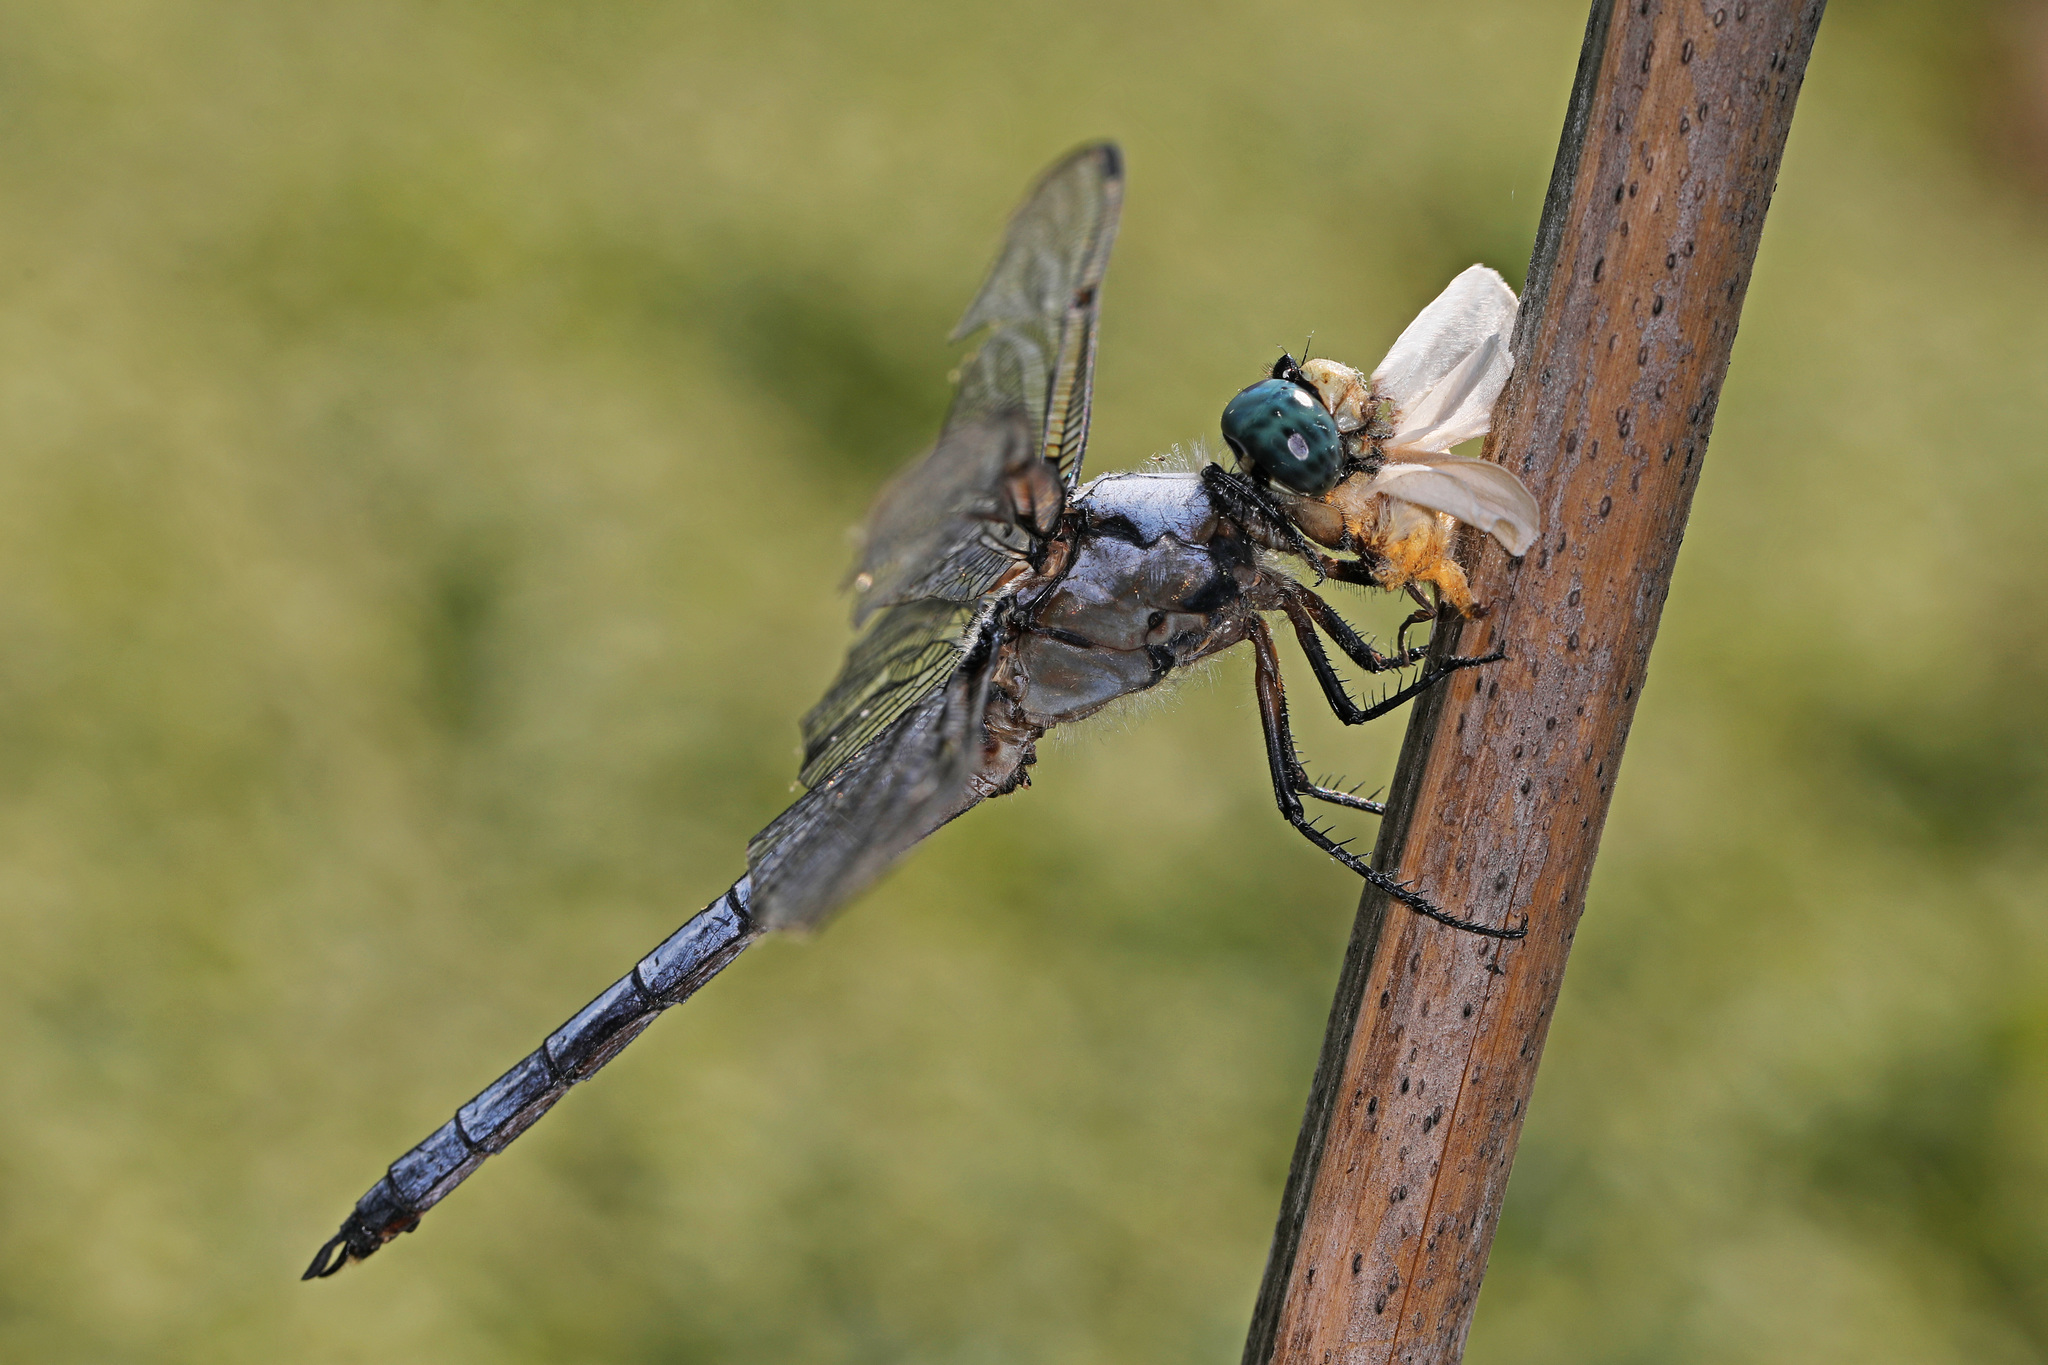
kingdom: Animalia
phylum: Arthropoda
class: Insecta
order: Odonata
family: Libellulidae
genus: Libellula
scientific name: Libellula vibrans
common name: Great blue skimmer
